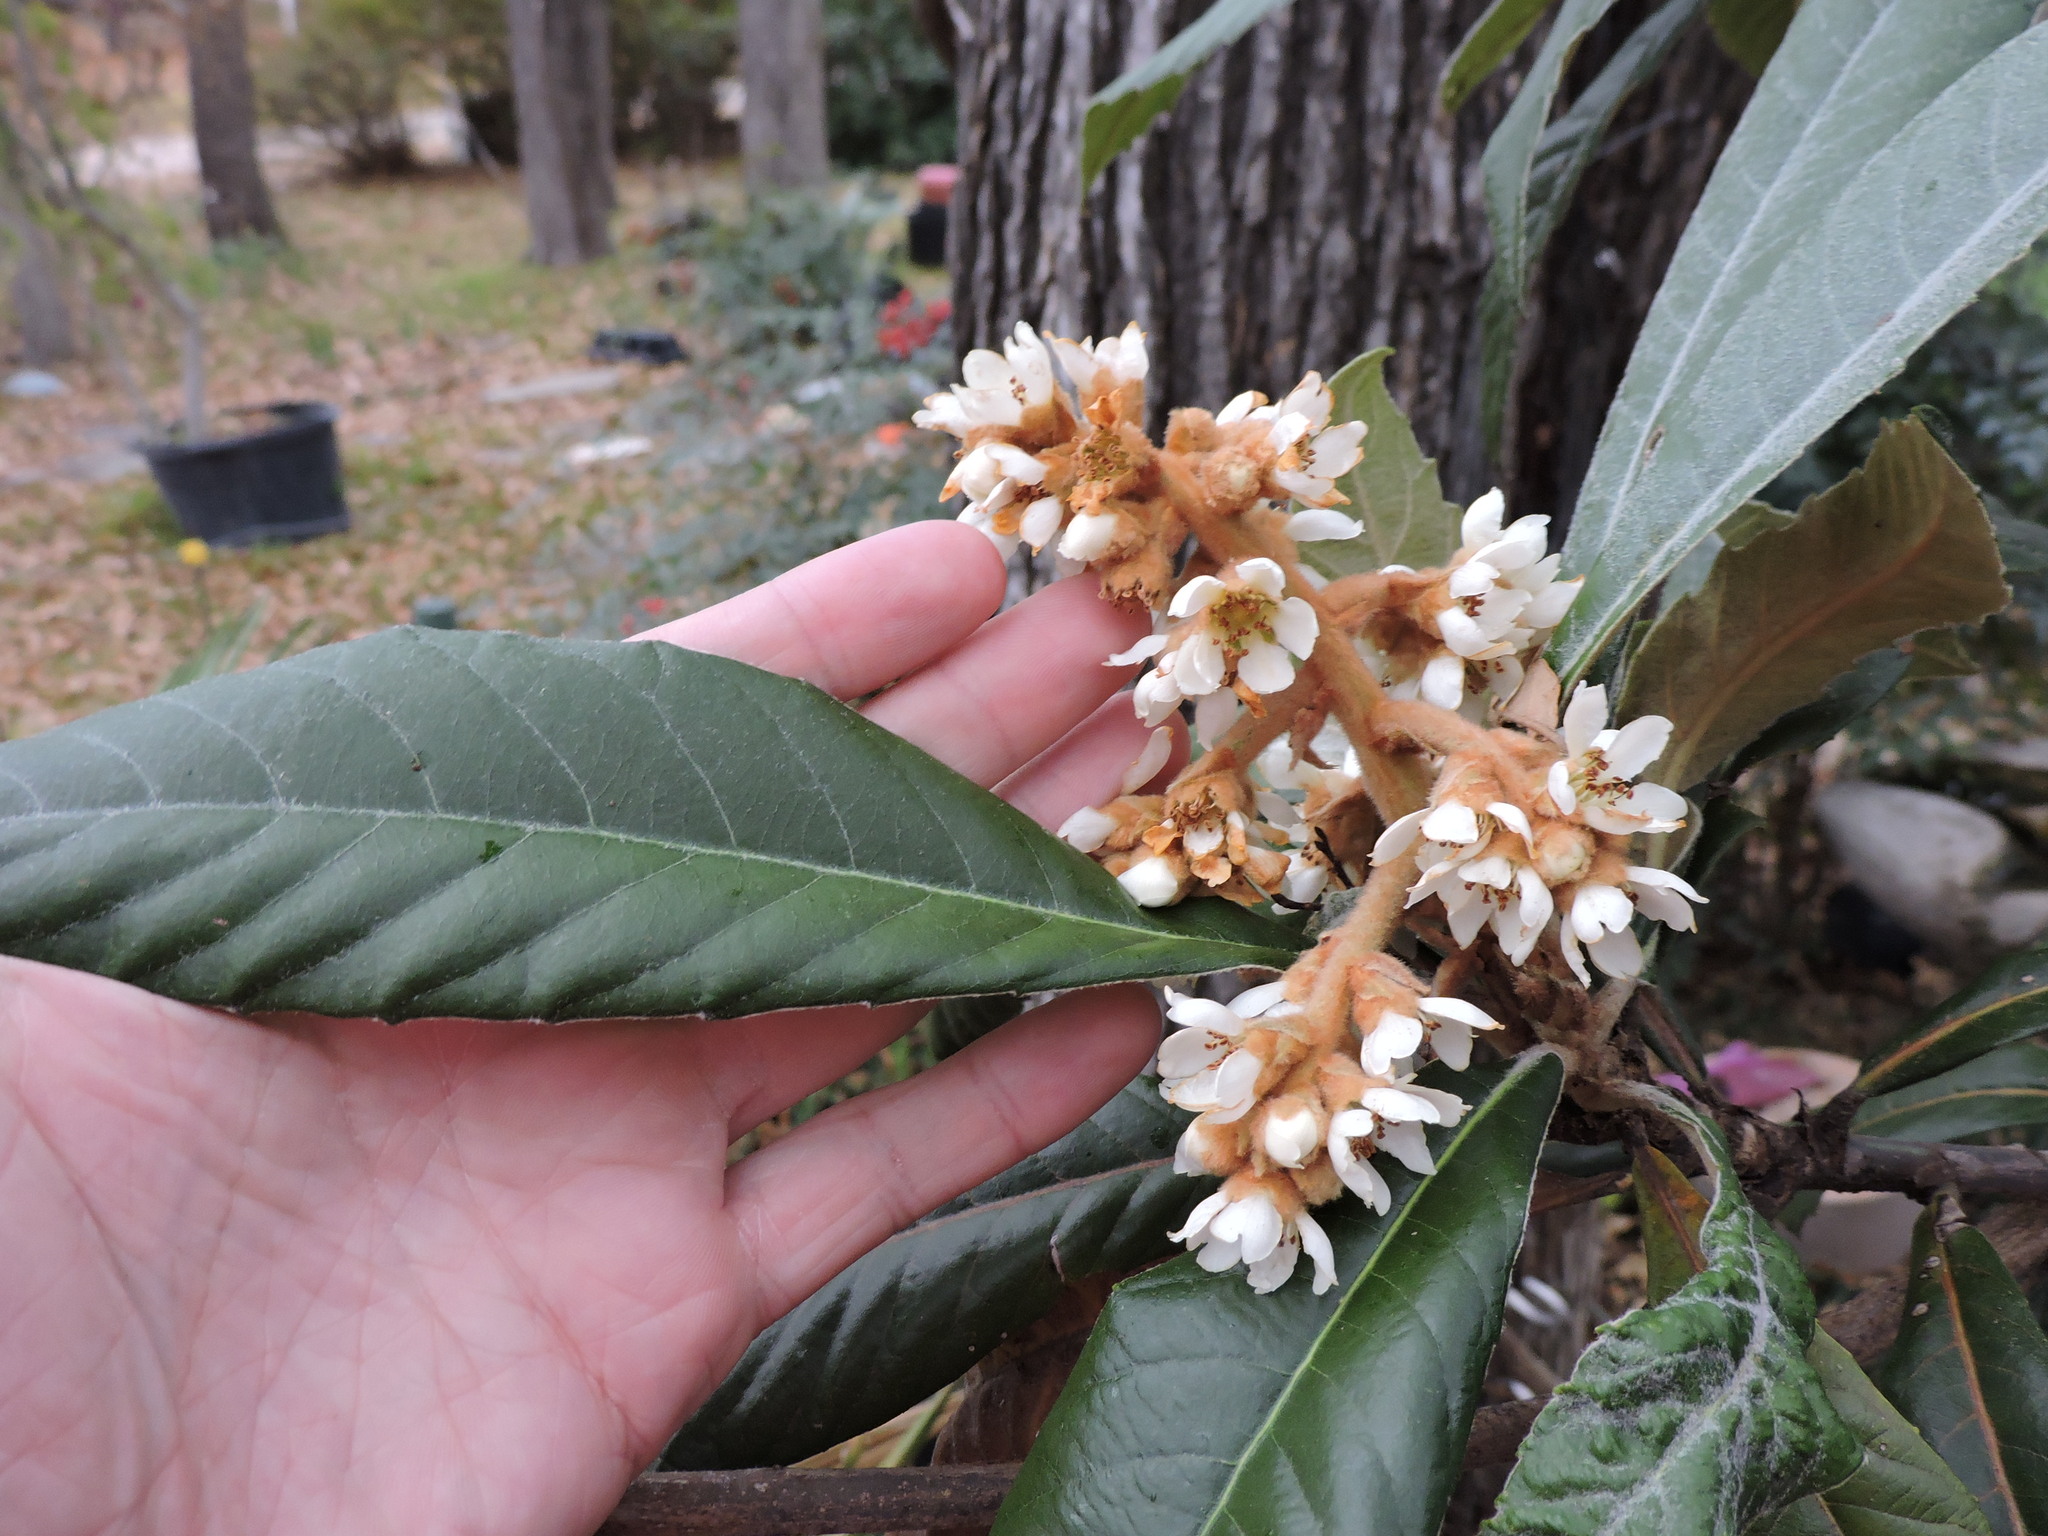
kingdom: Plantae
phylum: Tracheophyta
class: Magnoliopsida
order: Rosales
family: Rosaceae
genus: Rhaphiolepis
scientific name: Rhaphiolepis bibas
